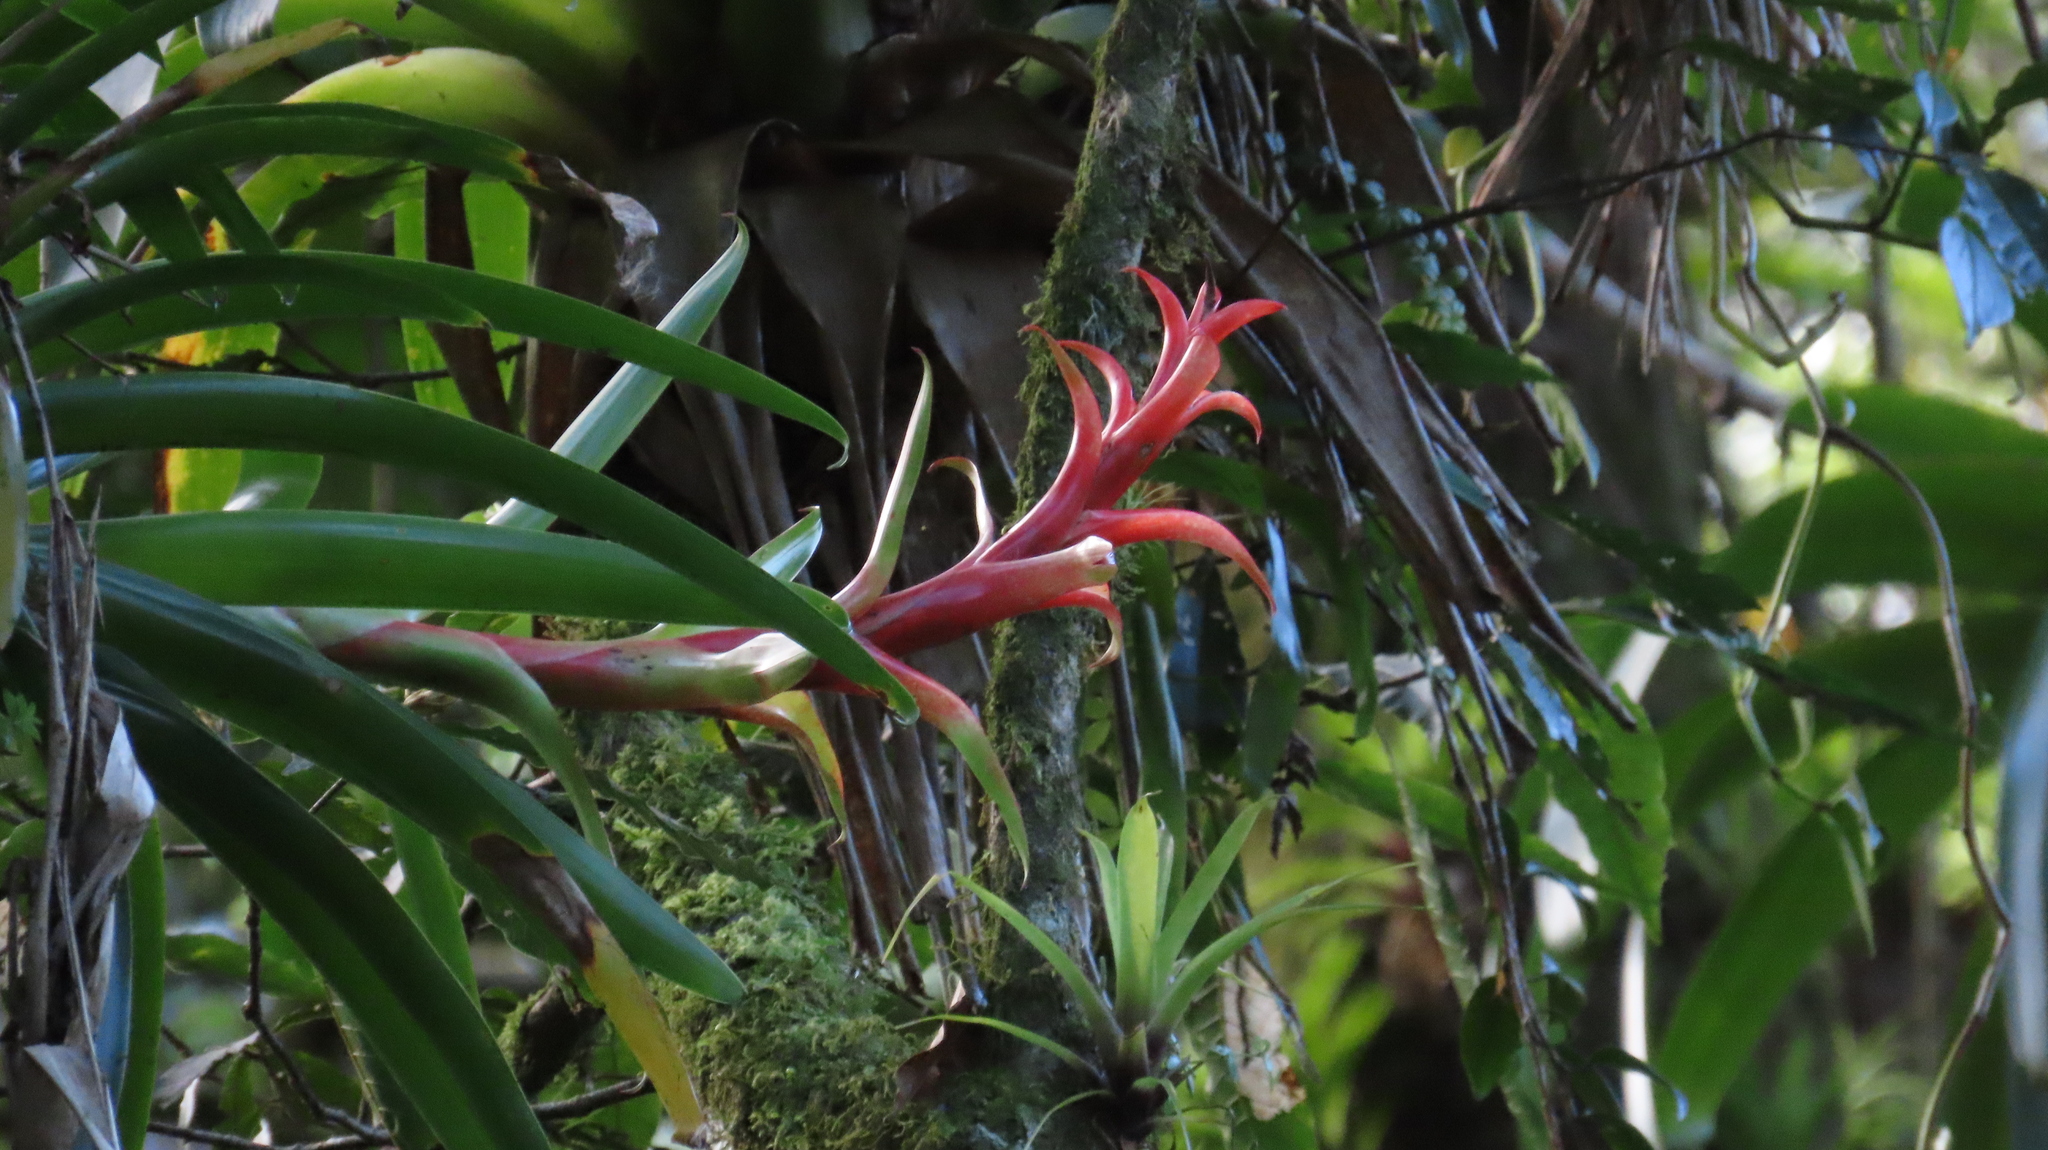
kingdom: Plantae
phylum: Tracheophyta
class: Liliopsida
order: Poales
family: Bromeliaceae
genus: Tillandsia
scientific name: Tillandsia candelifera
